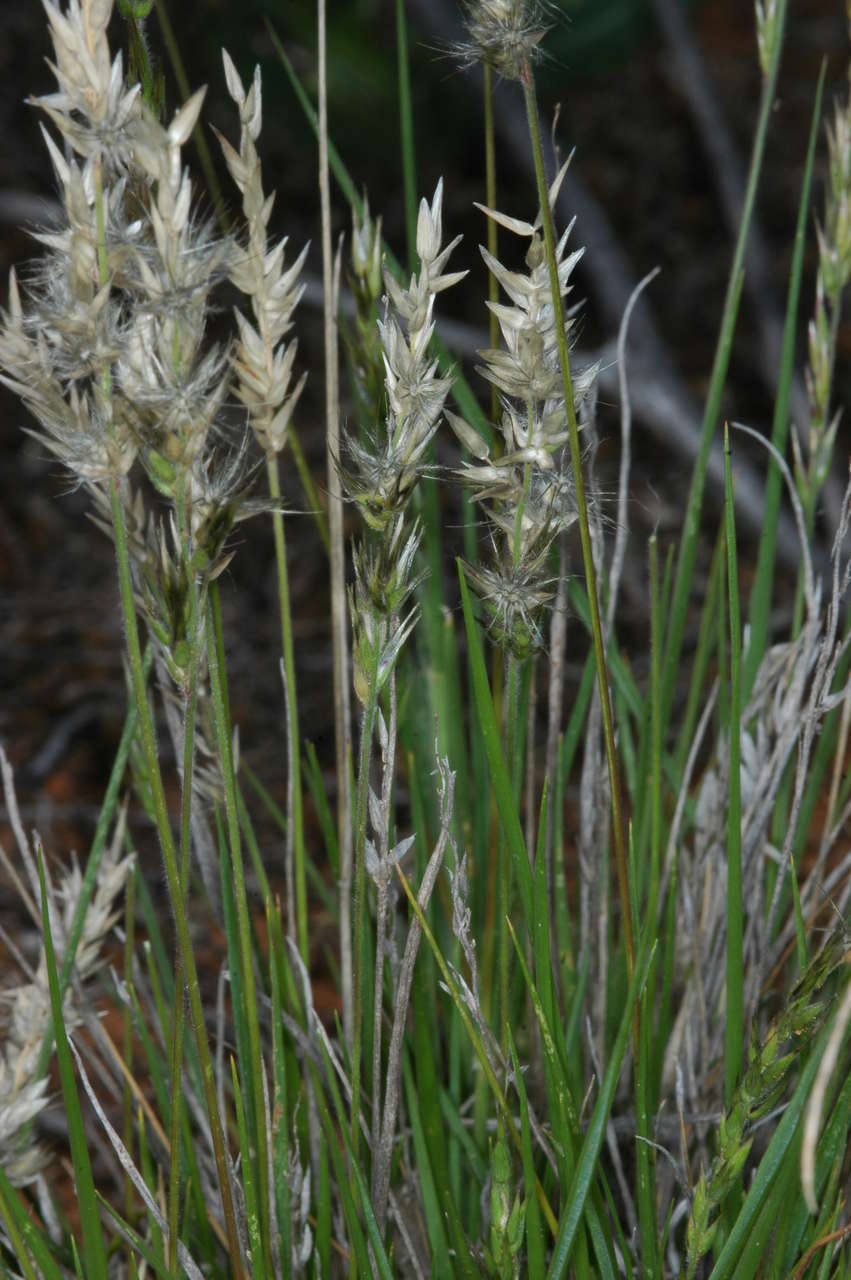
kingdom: Plantae
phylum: Tracheophyta
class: Liliopsida
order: Poales
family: Poaceae
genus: Enneapogon
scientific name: Enneapogon avenaceus
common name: Hairy oat grass
